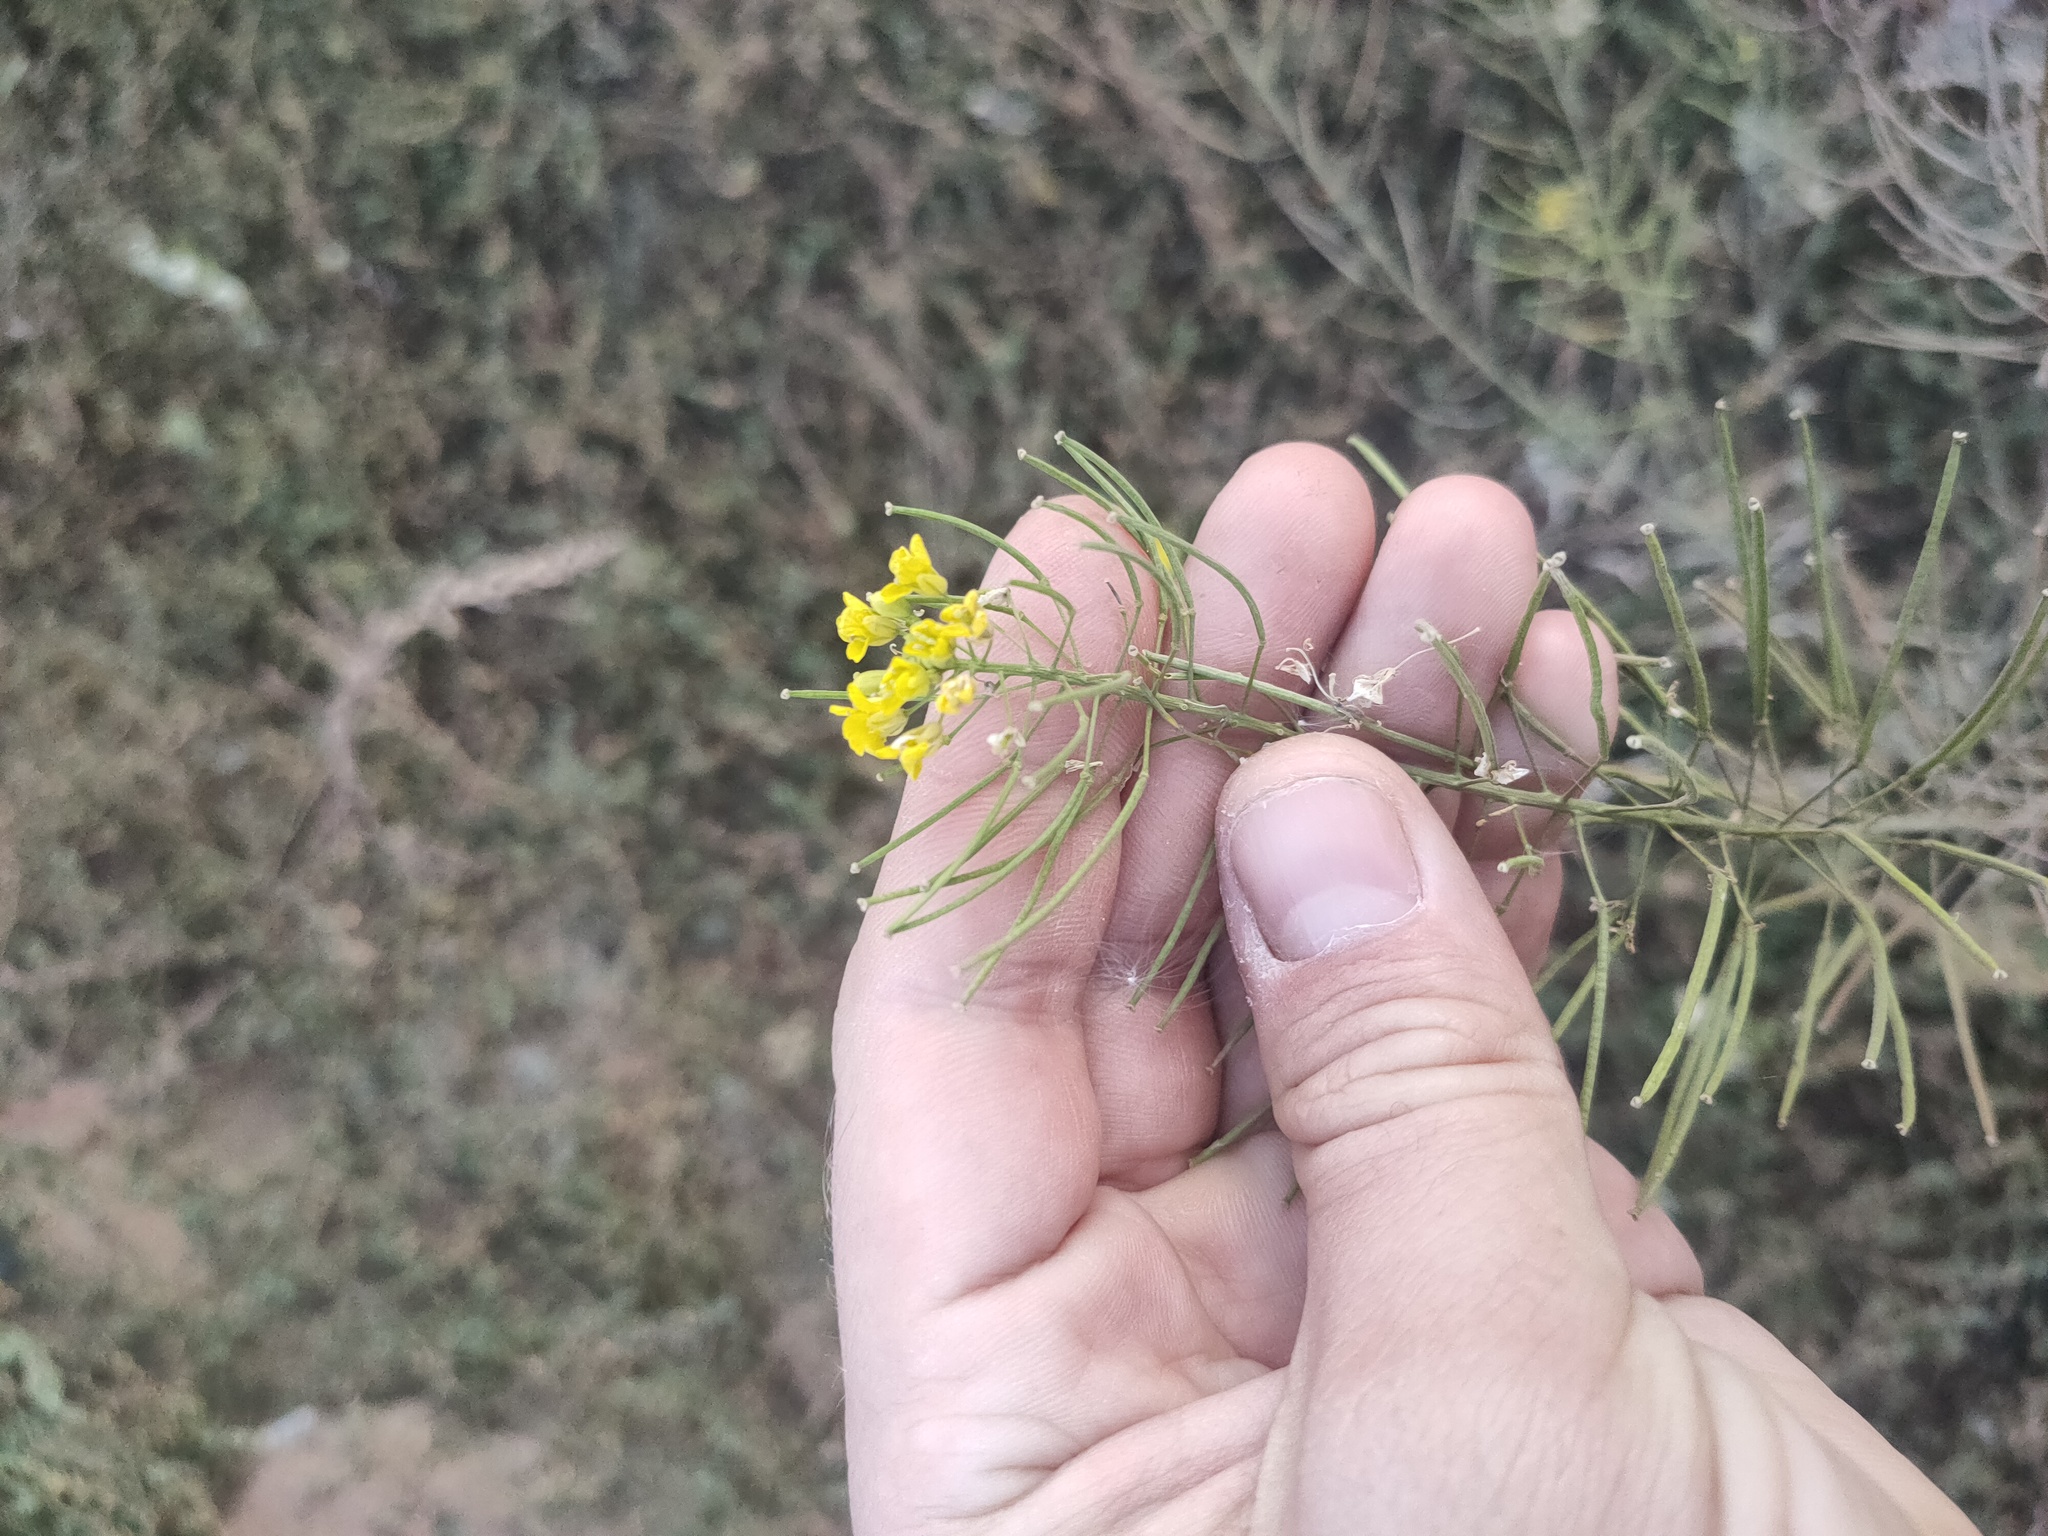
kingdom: Plantae
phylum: Tracheophyta
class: Magnoliopsida
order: Brassicales
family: Brassicaceae
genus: Sisymbrium
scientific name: Sisymbrium loeselii
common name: False london-rocket
